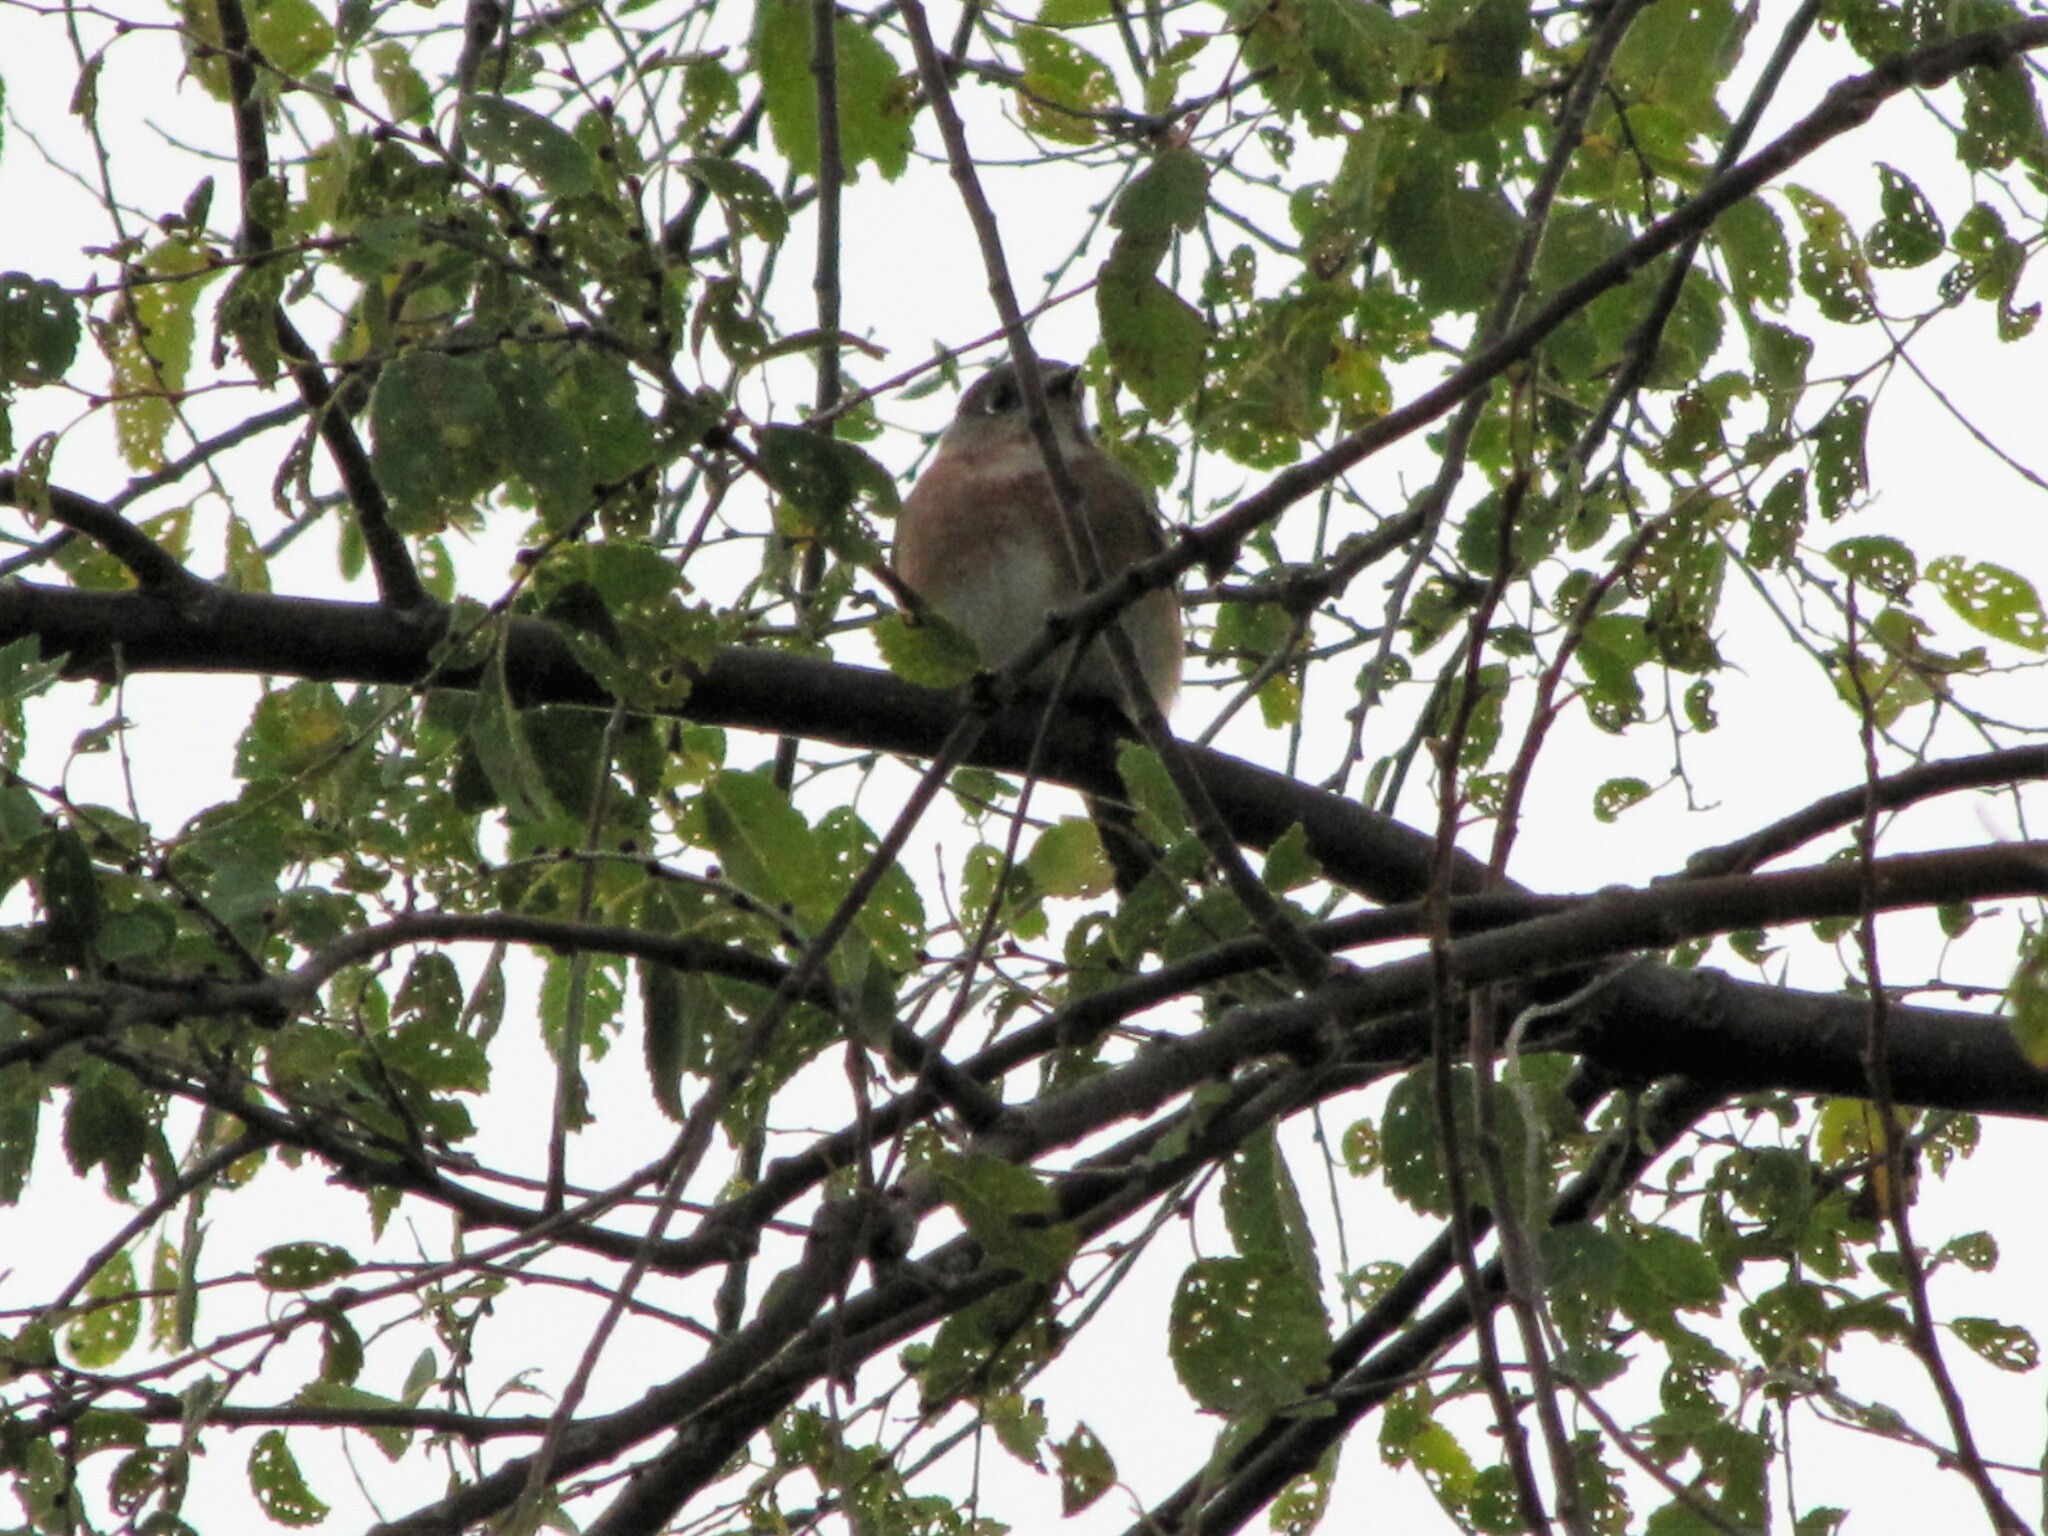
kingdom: Animalia
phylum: Chordata
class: Aves
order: Passeriformes
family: Turdidae
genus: Sialia
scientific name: Sialia sialis
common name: Eastern bluebird
